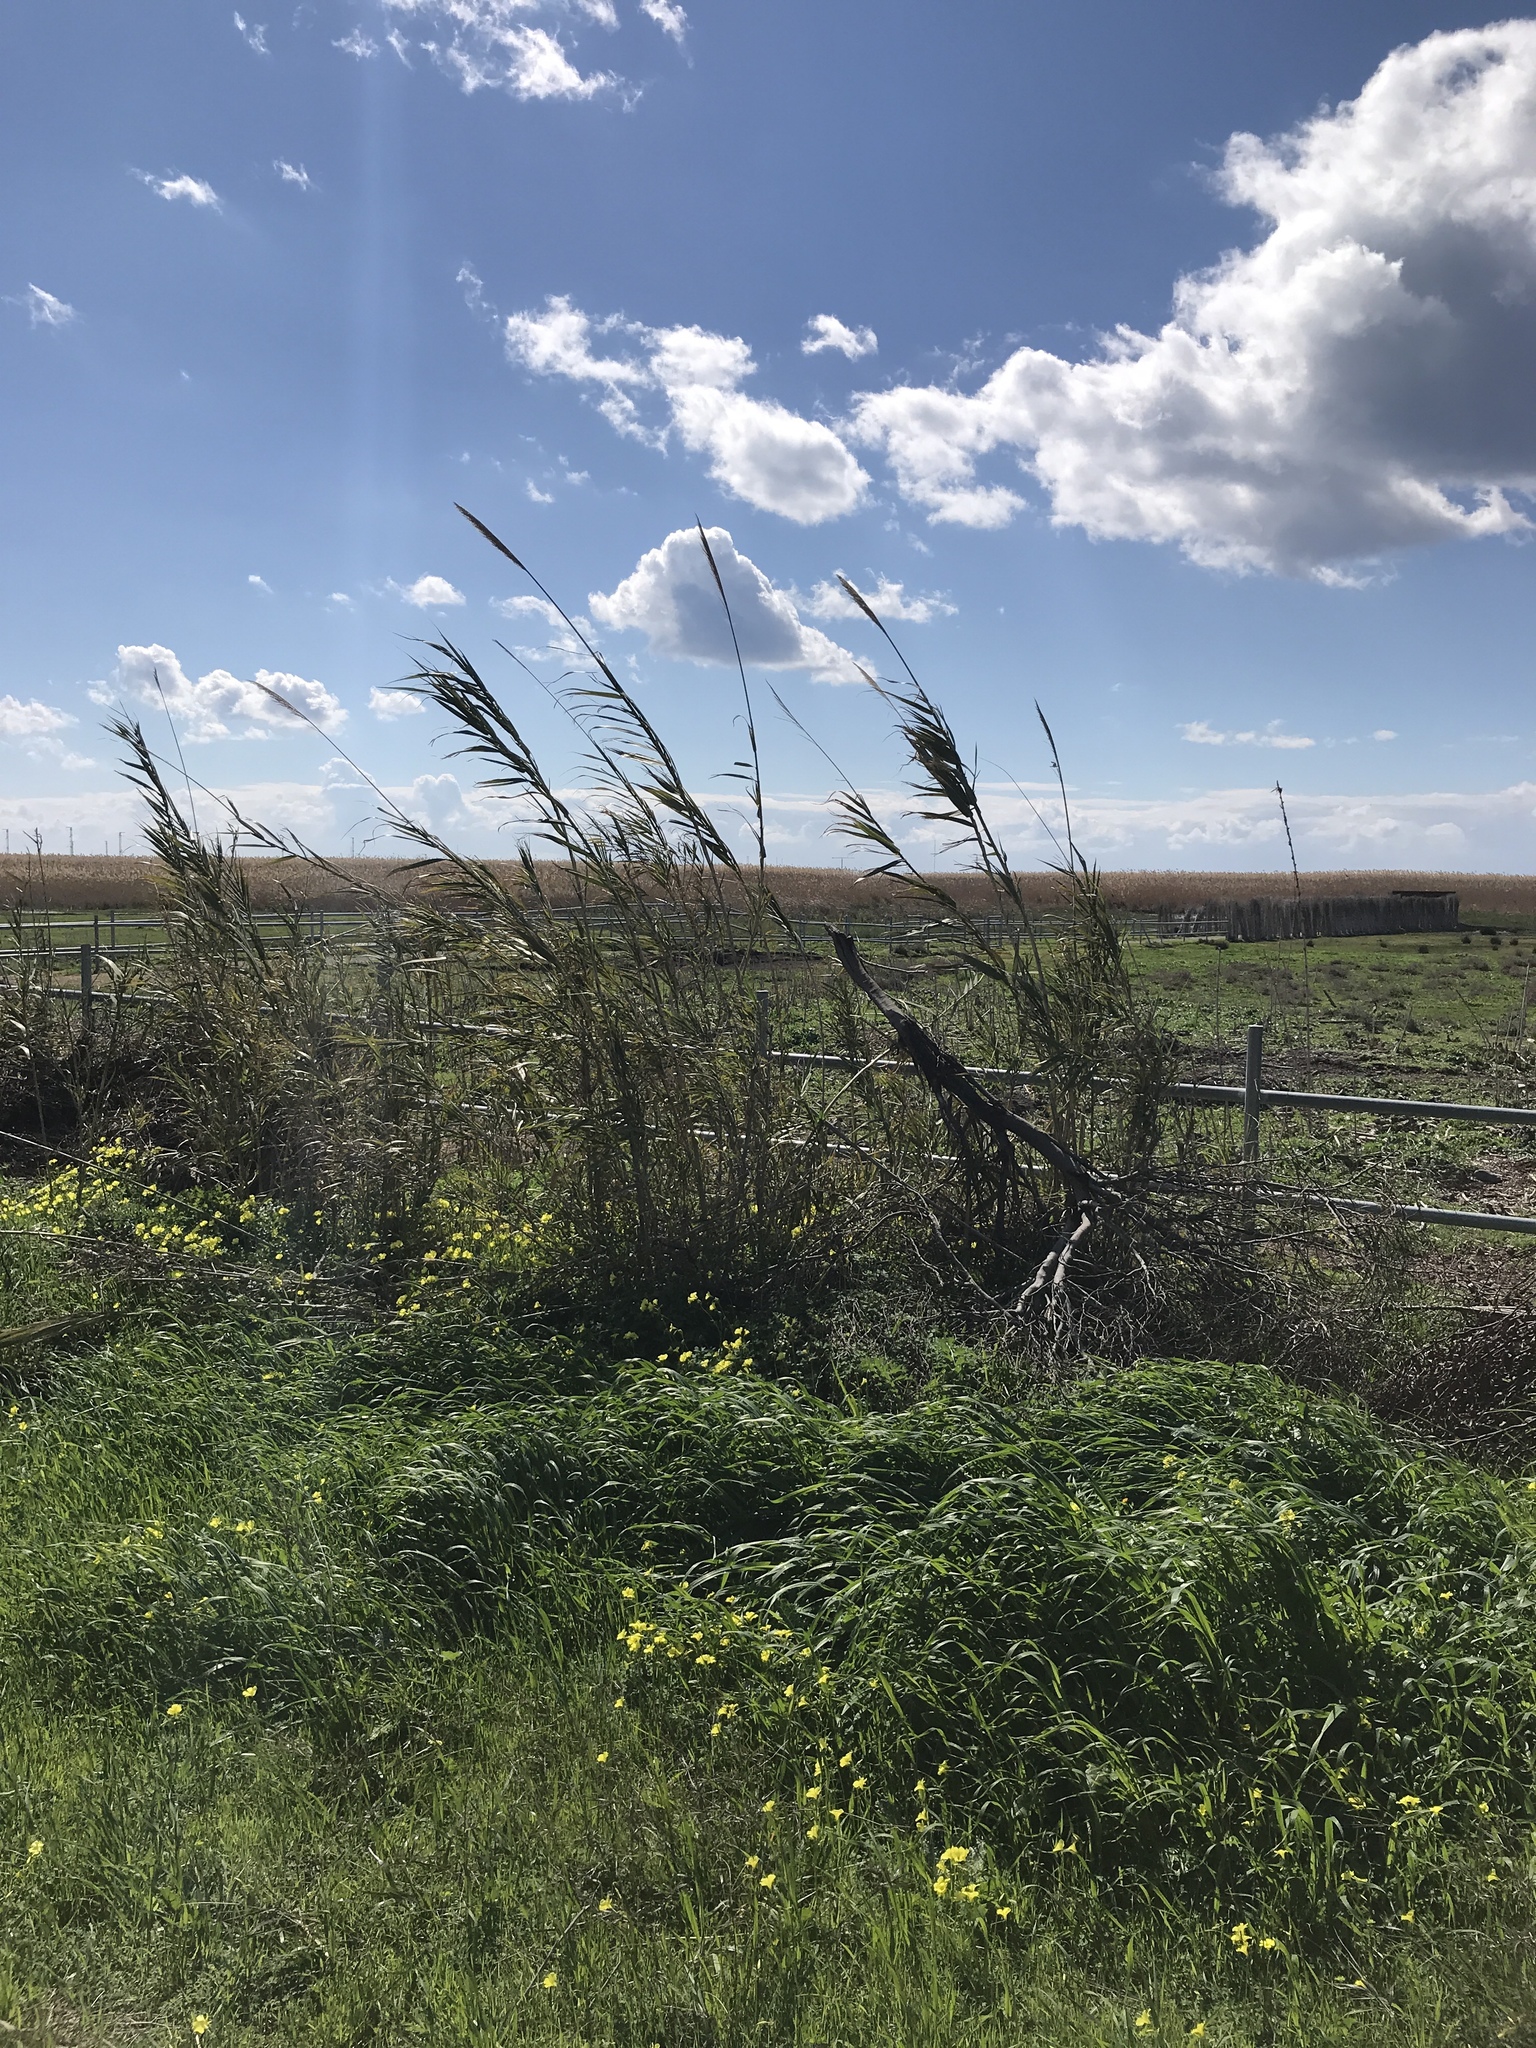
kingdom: Plantae
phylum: Tracheophyta
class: Liliopsida
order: Poales
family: Poaceae
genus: Arundo
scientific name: Arundo donax
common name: Giant reed
